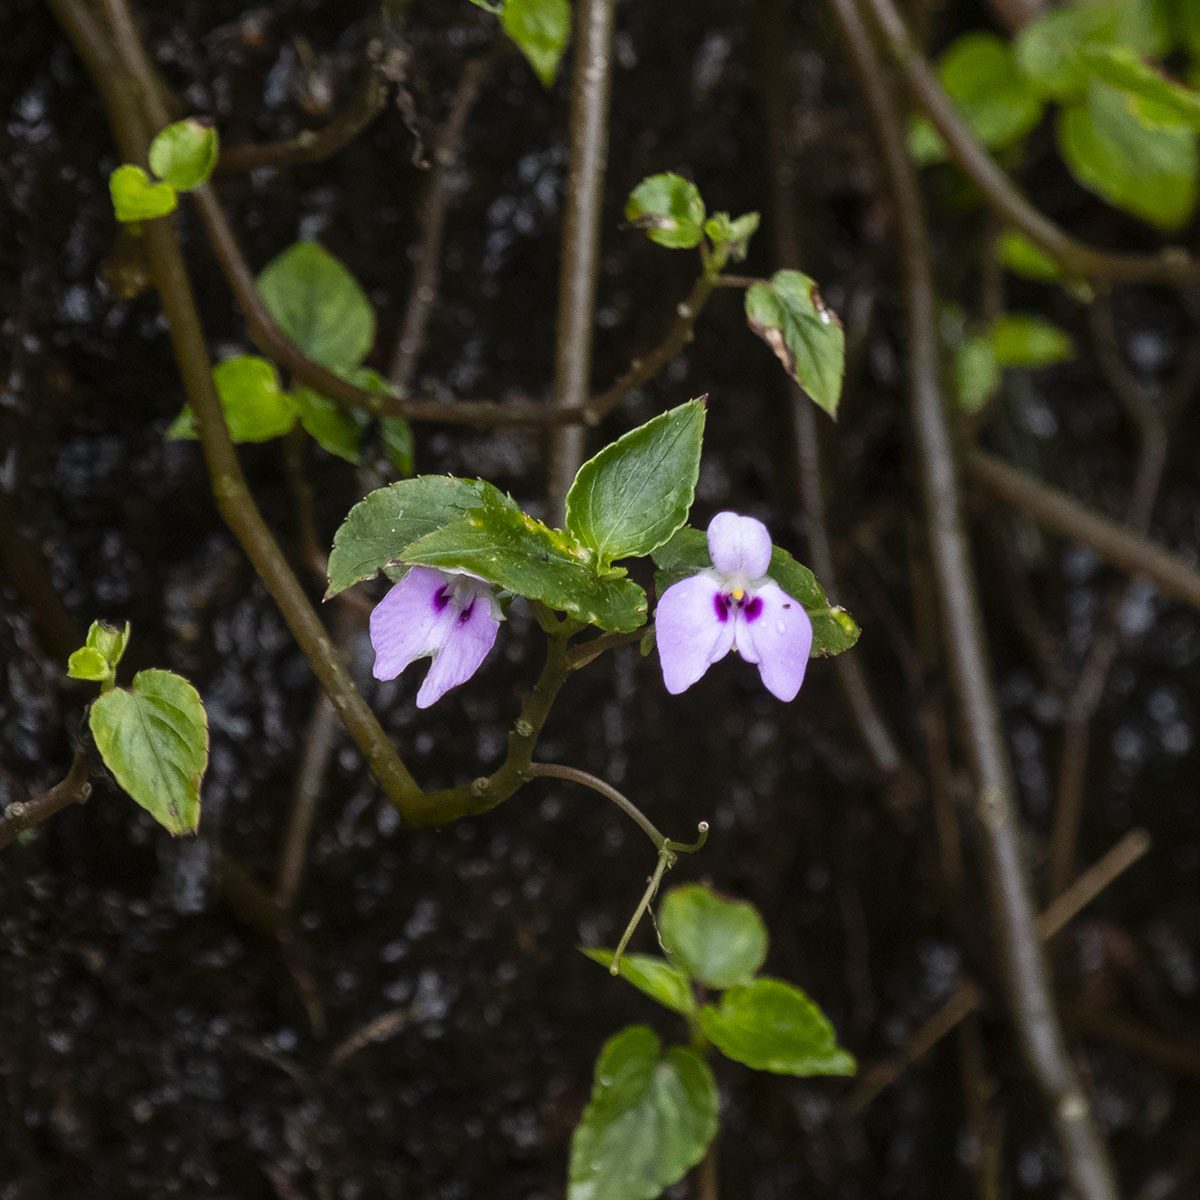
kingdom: Plantae
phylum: Tracheophyta
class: Magnoliopsida
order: Ericales
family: Balsaminaceae
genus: Impatiens
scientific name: Impatiens elegans
